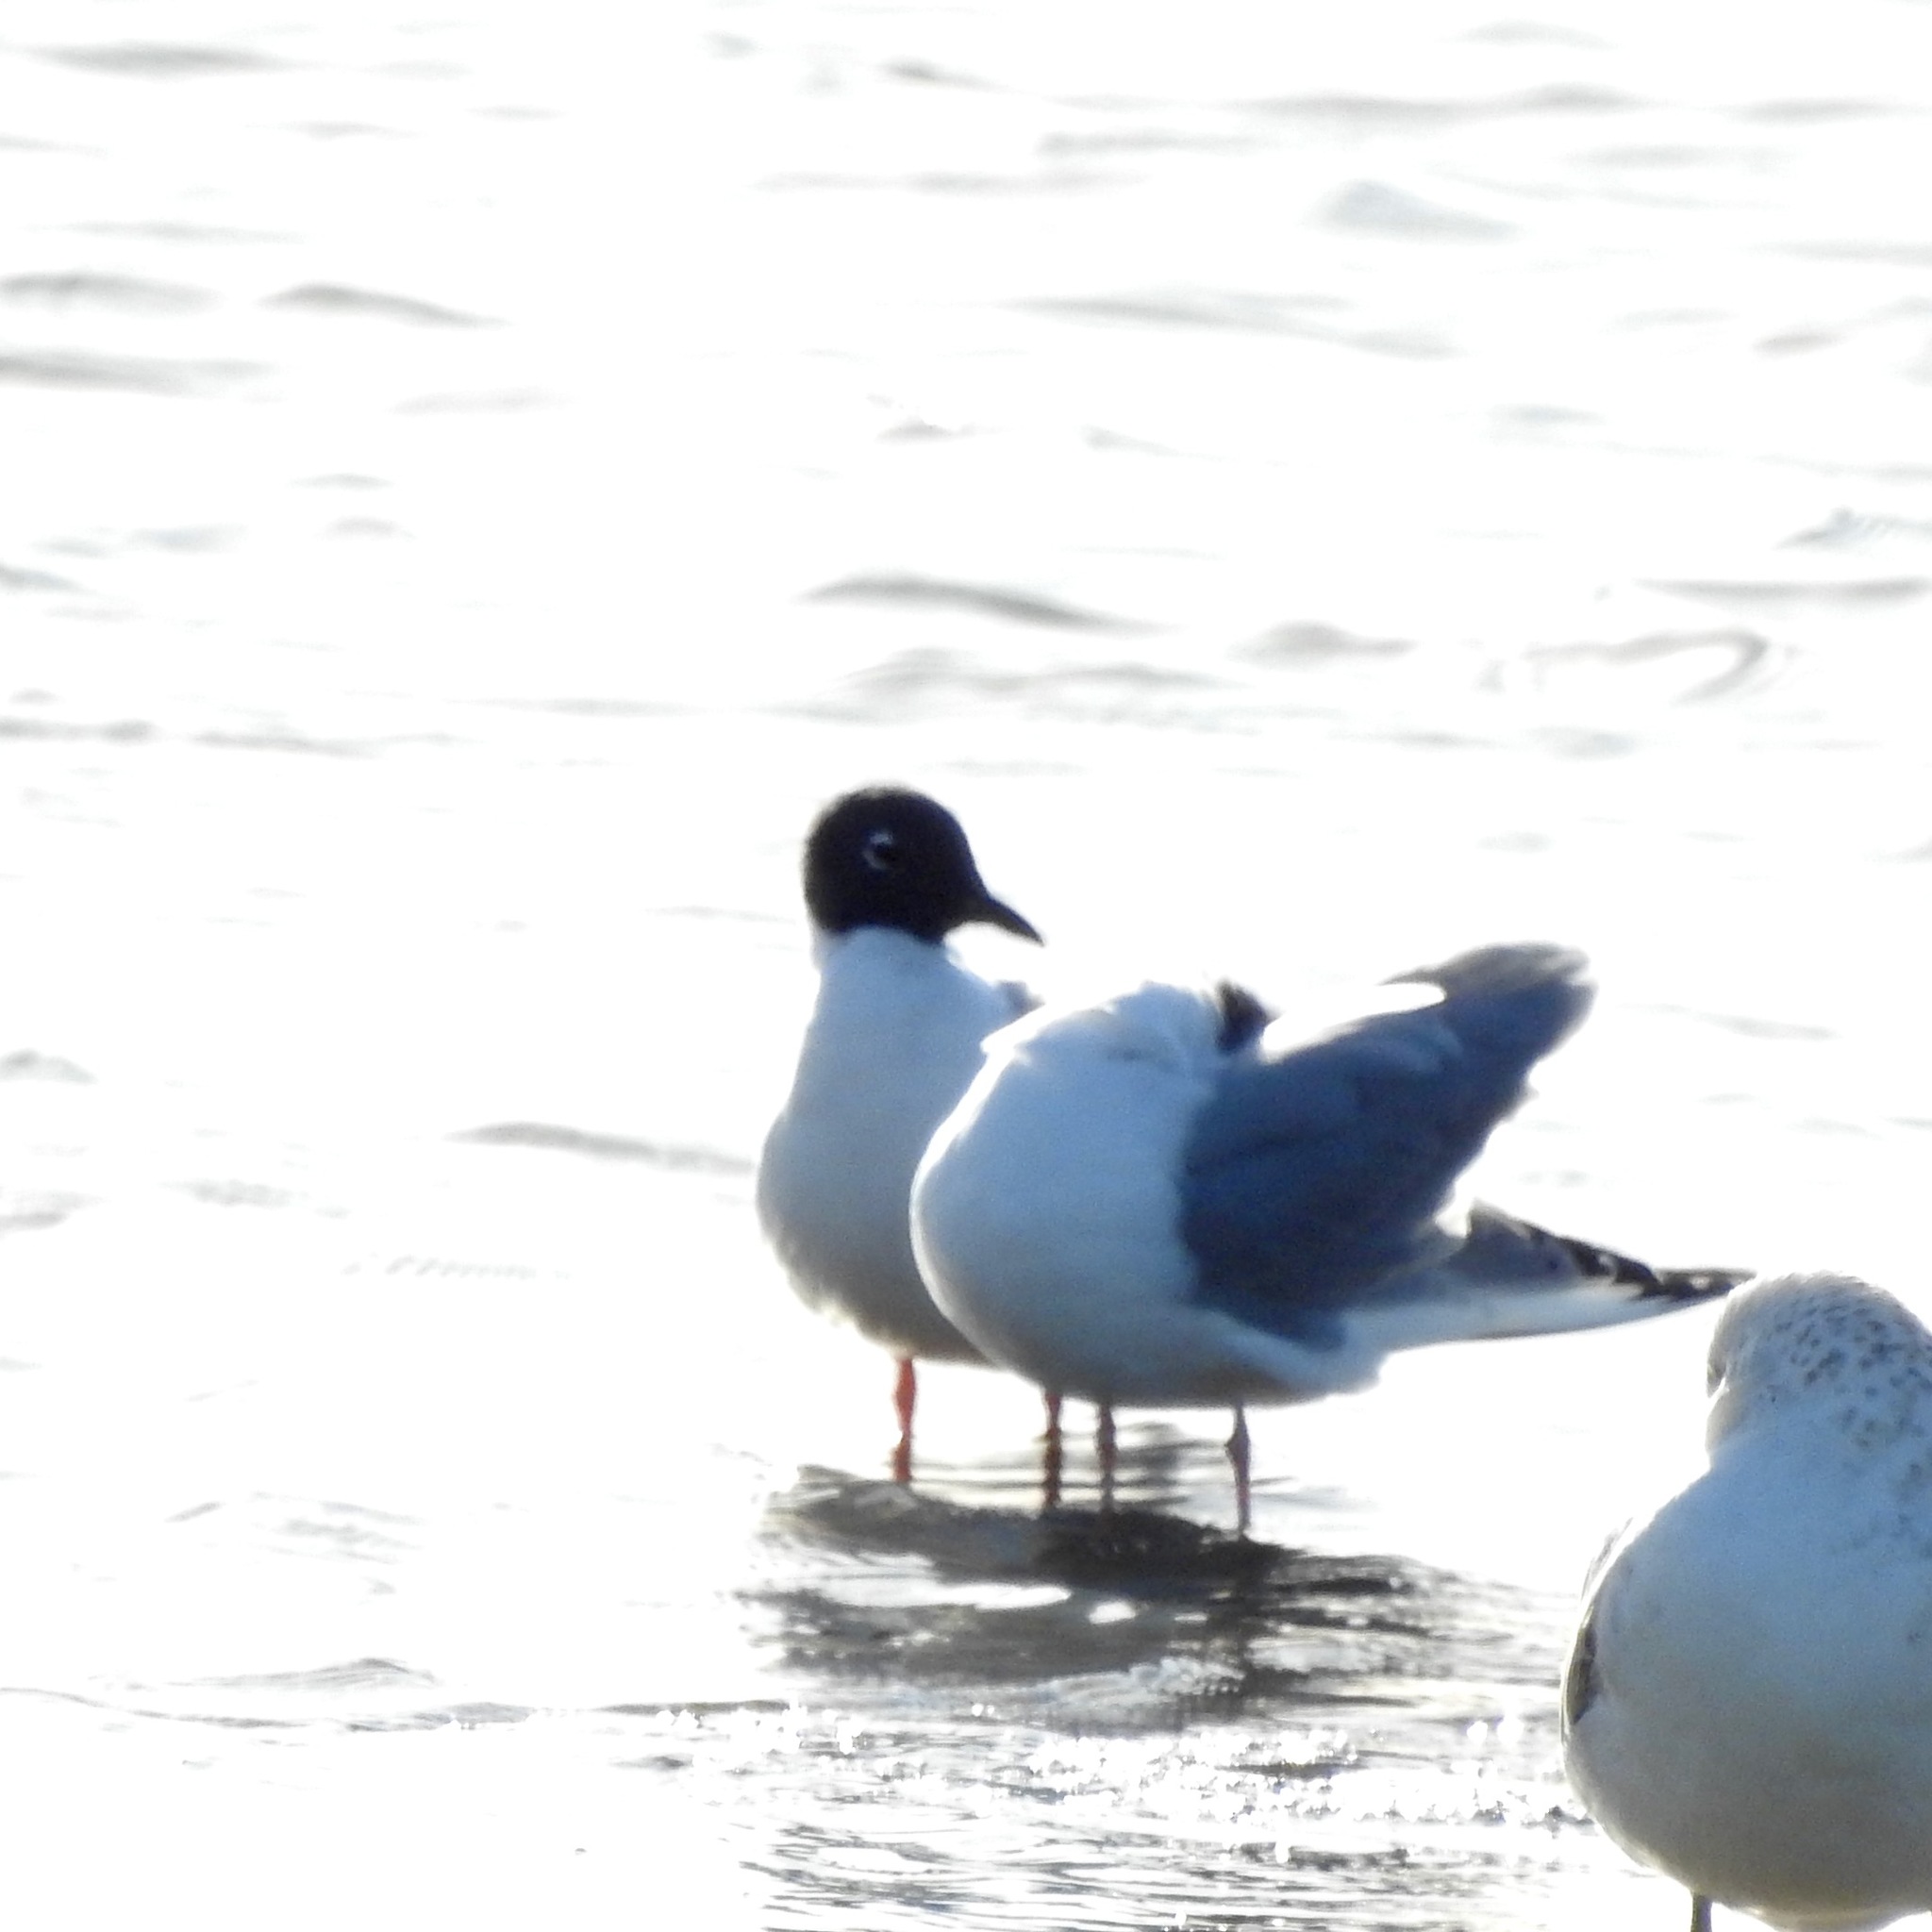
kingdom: Animalia
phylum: Chordata
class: Aves
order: Charadriiformes
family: Laridae
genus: Chroicocephalus
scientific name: Chroicocephalus philadelphia
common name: Bonaparte's gull
